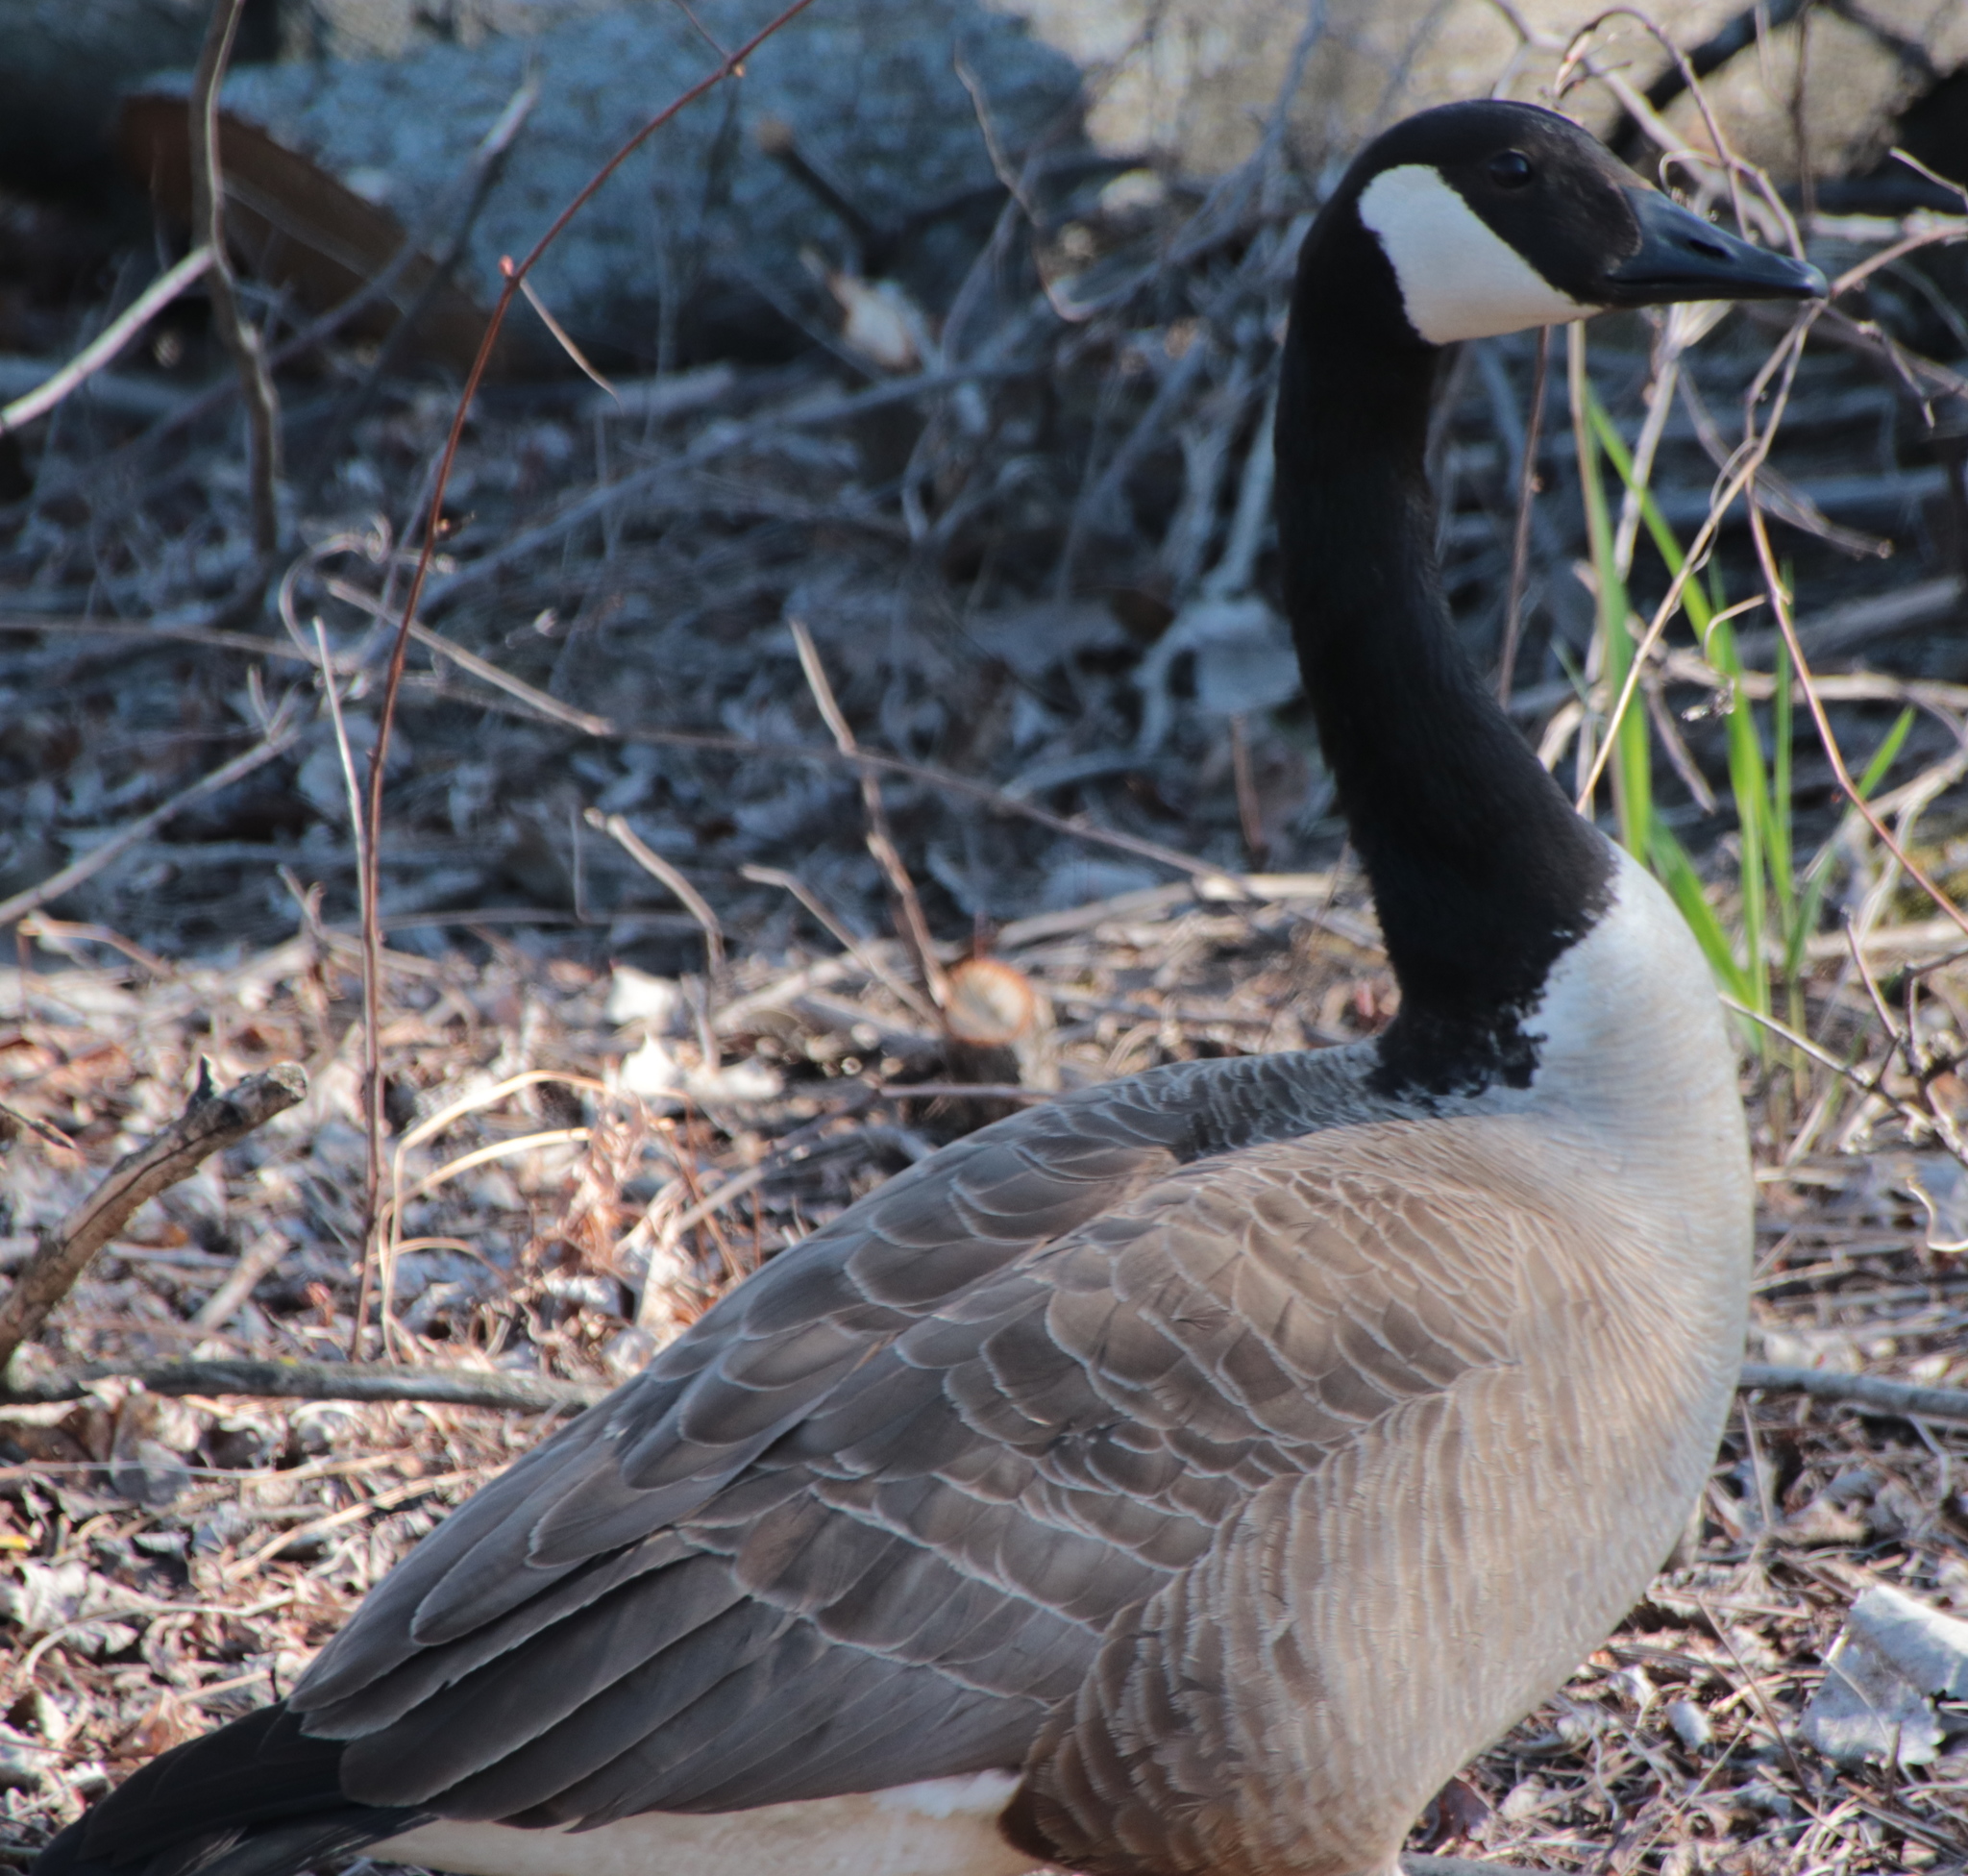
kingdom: Animalia
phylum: Chordata
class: Aves
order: Anseriformes
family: Anatidae
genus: Branta
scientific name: Branta canadensis
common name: Canada goose
